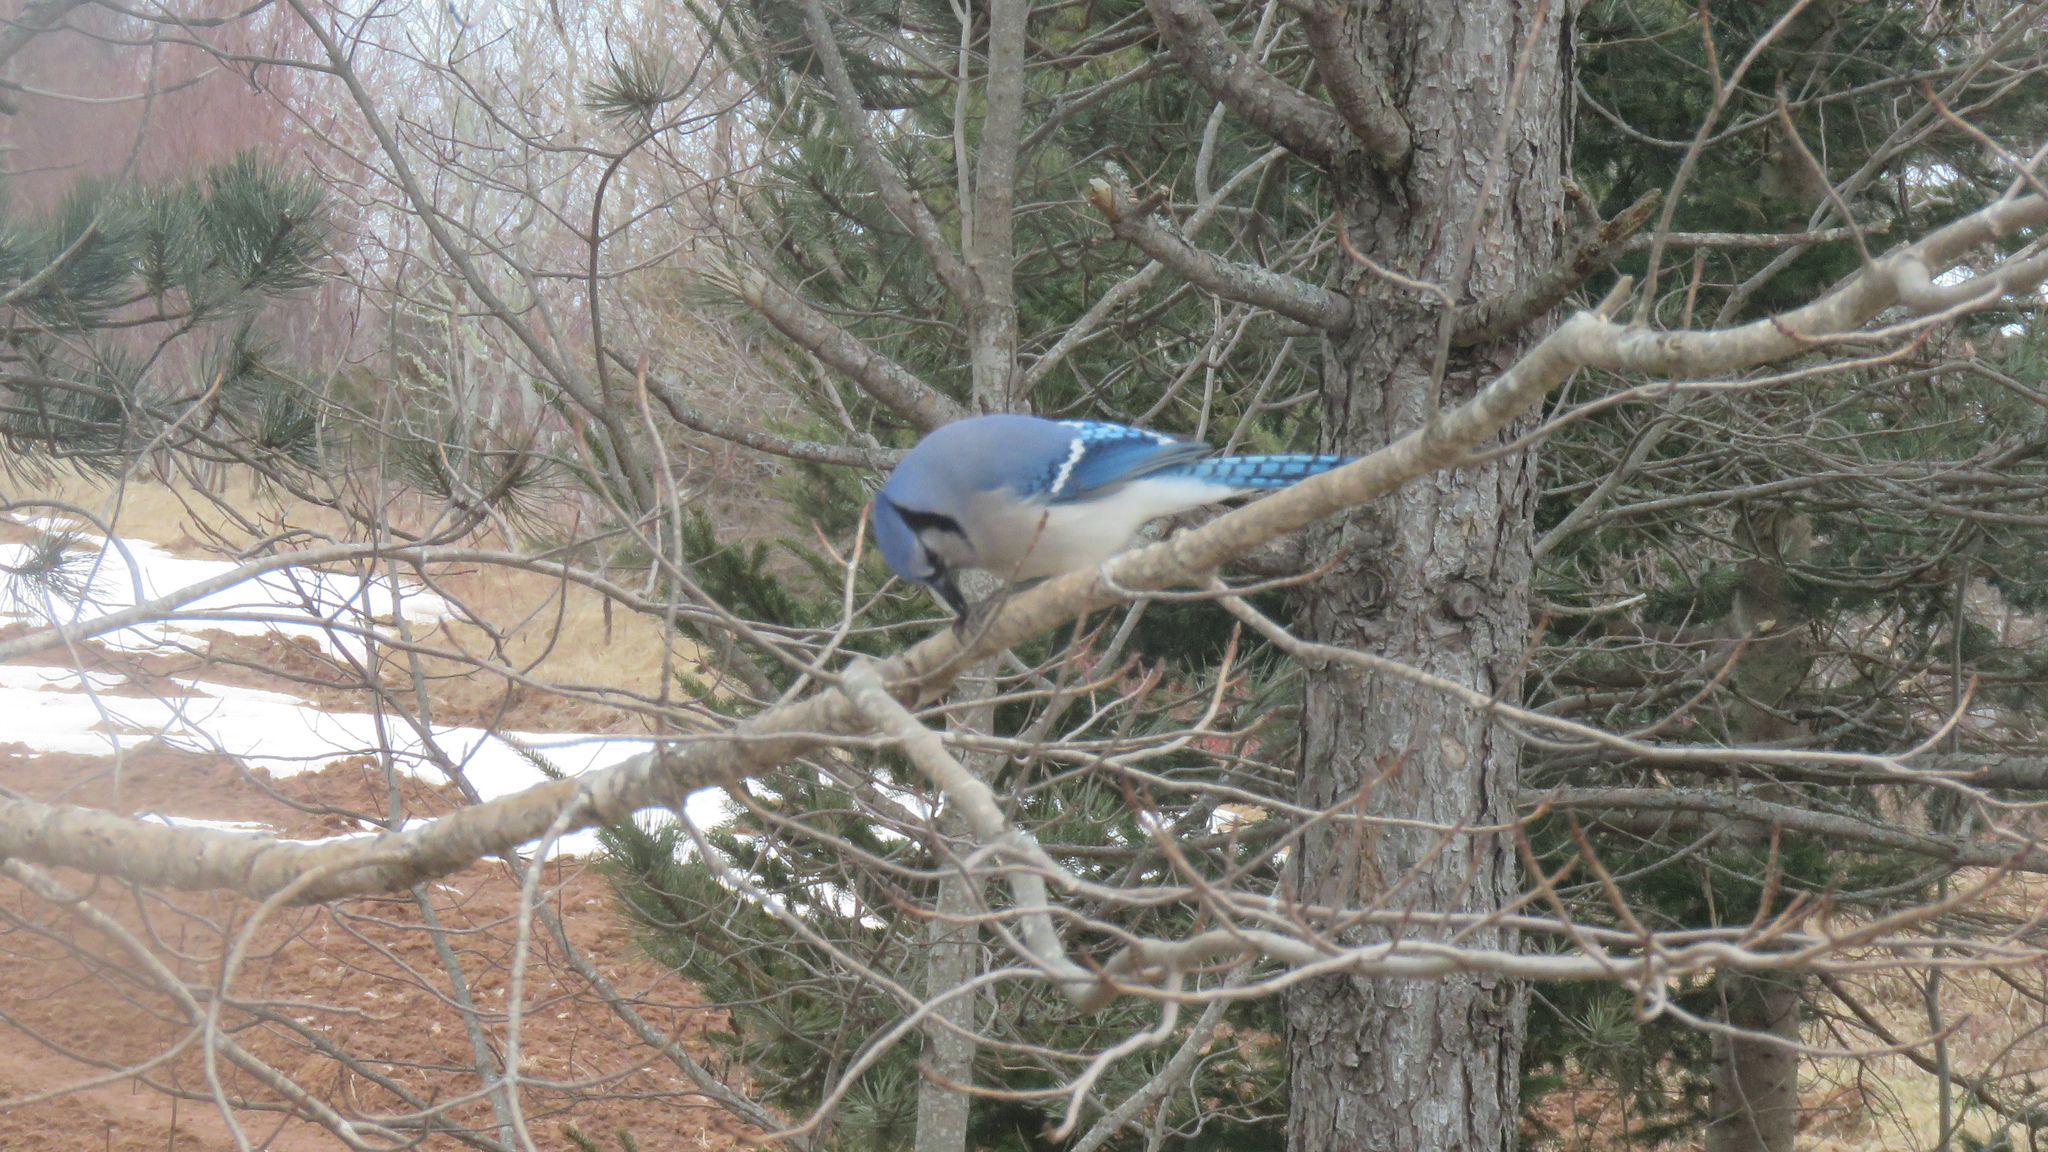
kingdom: Animalia
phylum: Chordata
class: Aves
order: Passeriformes
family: Corvidae
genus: Cyanocitta
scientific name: Cyanocitta cristata
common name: Blue jay
